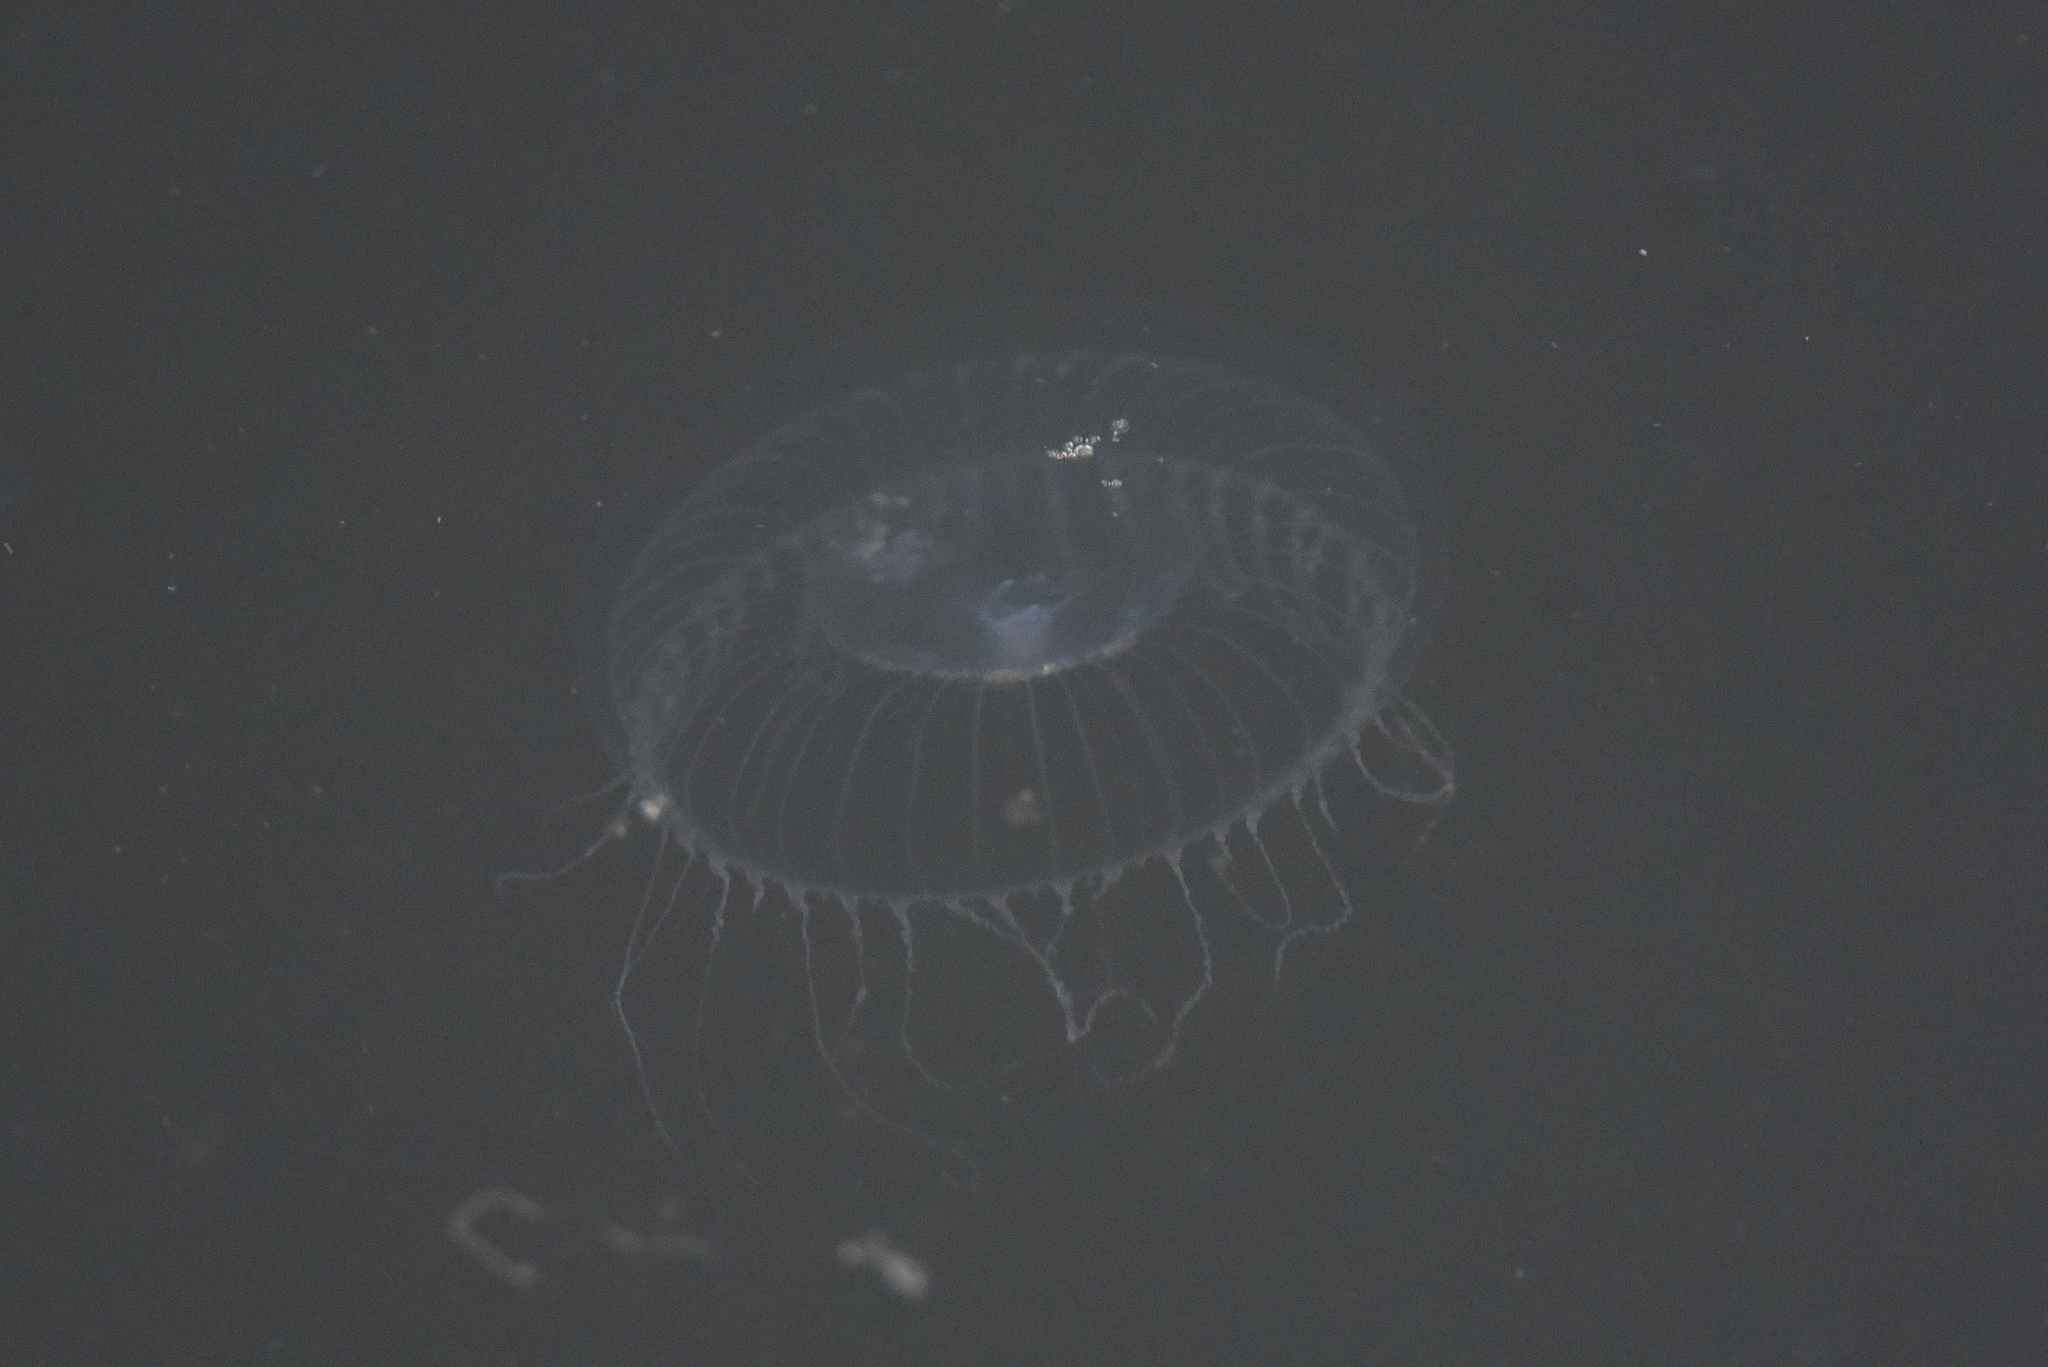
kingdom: Animalia
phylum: Cnidaria
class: Hydrozoa
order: Leptothecata
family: Aequoreidae
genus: Aequorea
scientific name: Aequorea victoria
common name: Water jellyfish
